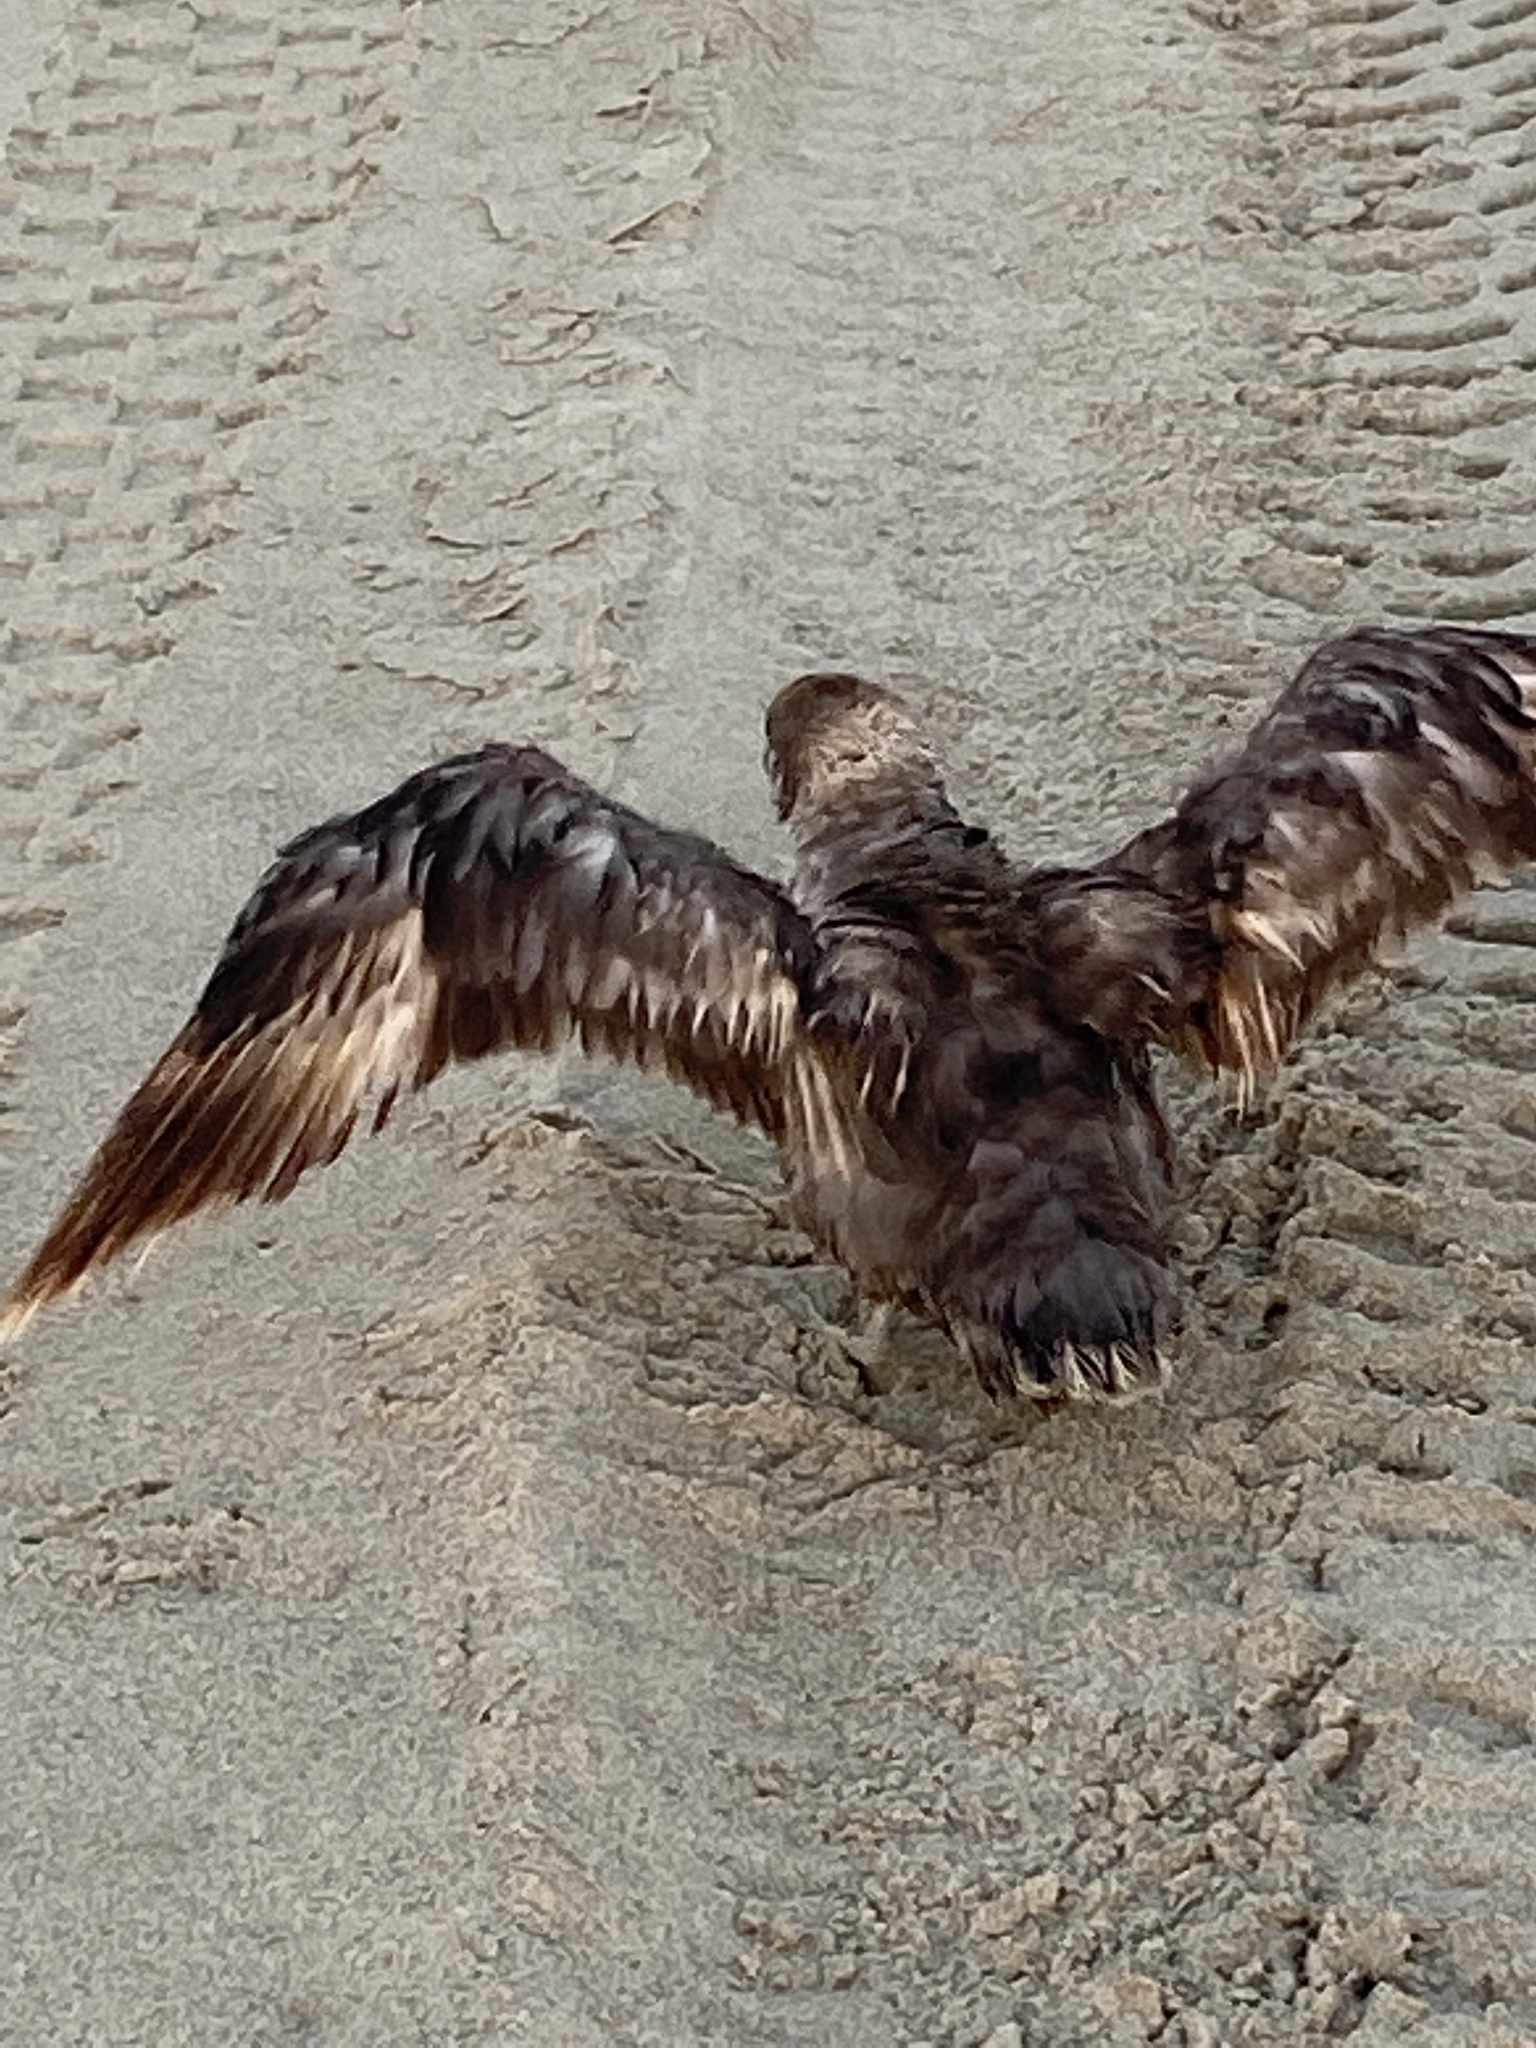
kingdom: Animalia
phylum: Chordata
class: Aves
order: Procellariiformes
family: Procellariidae
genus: Fulmarus
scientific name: Fulmarus glacialis
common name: Northern fulmar
